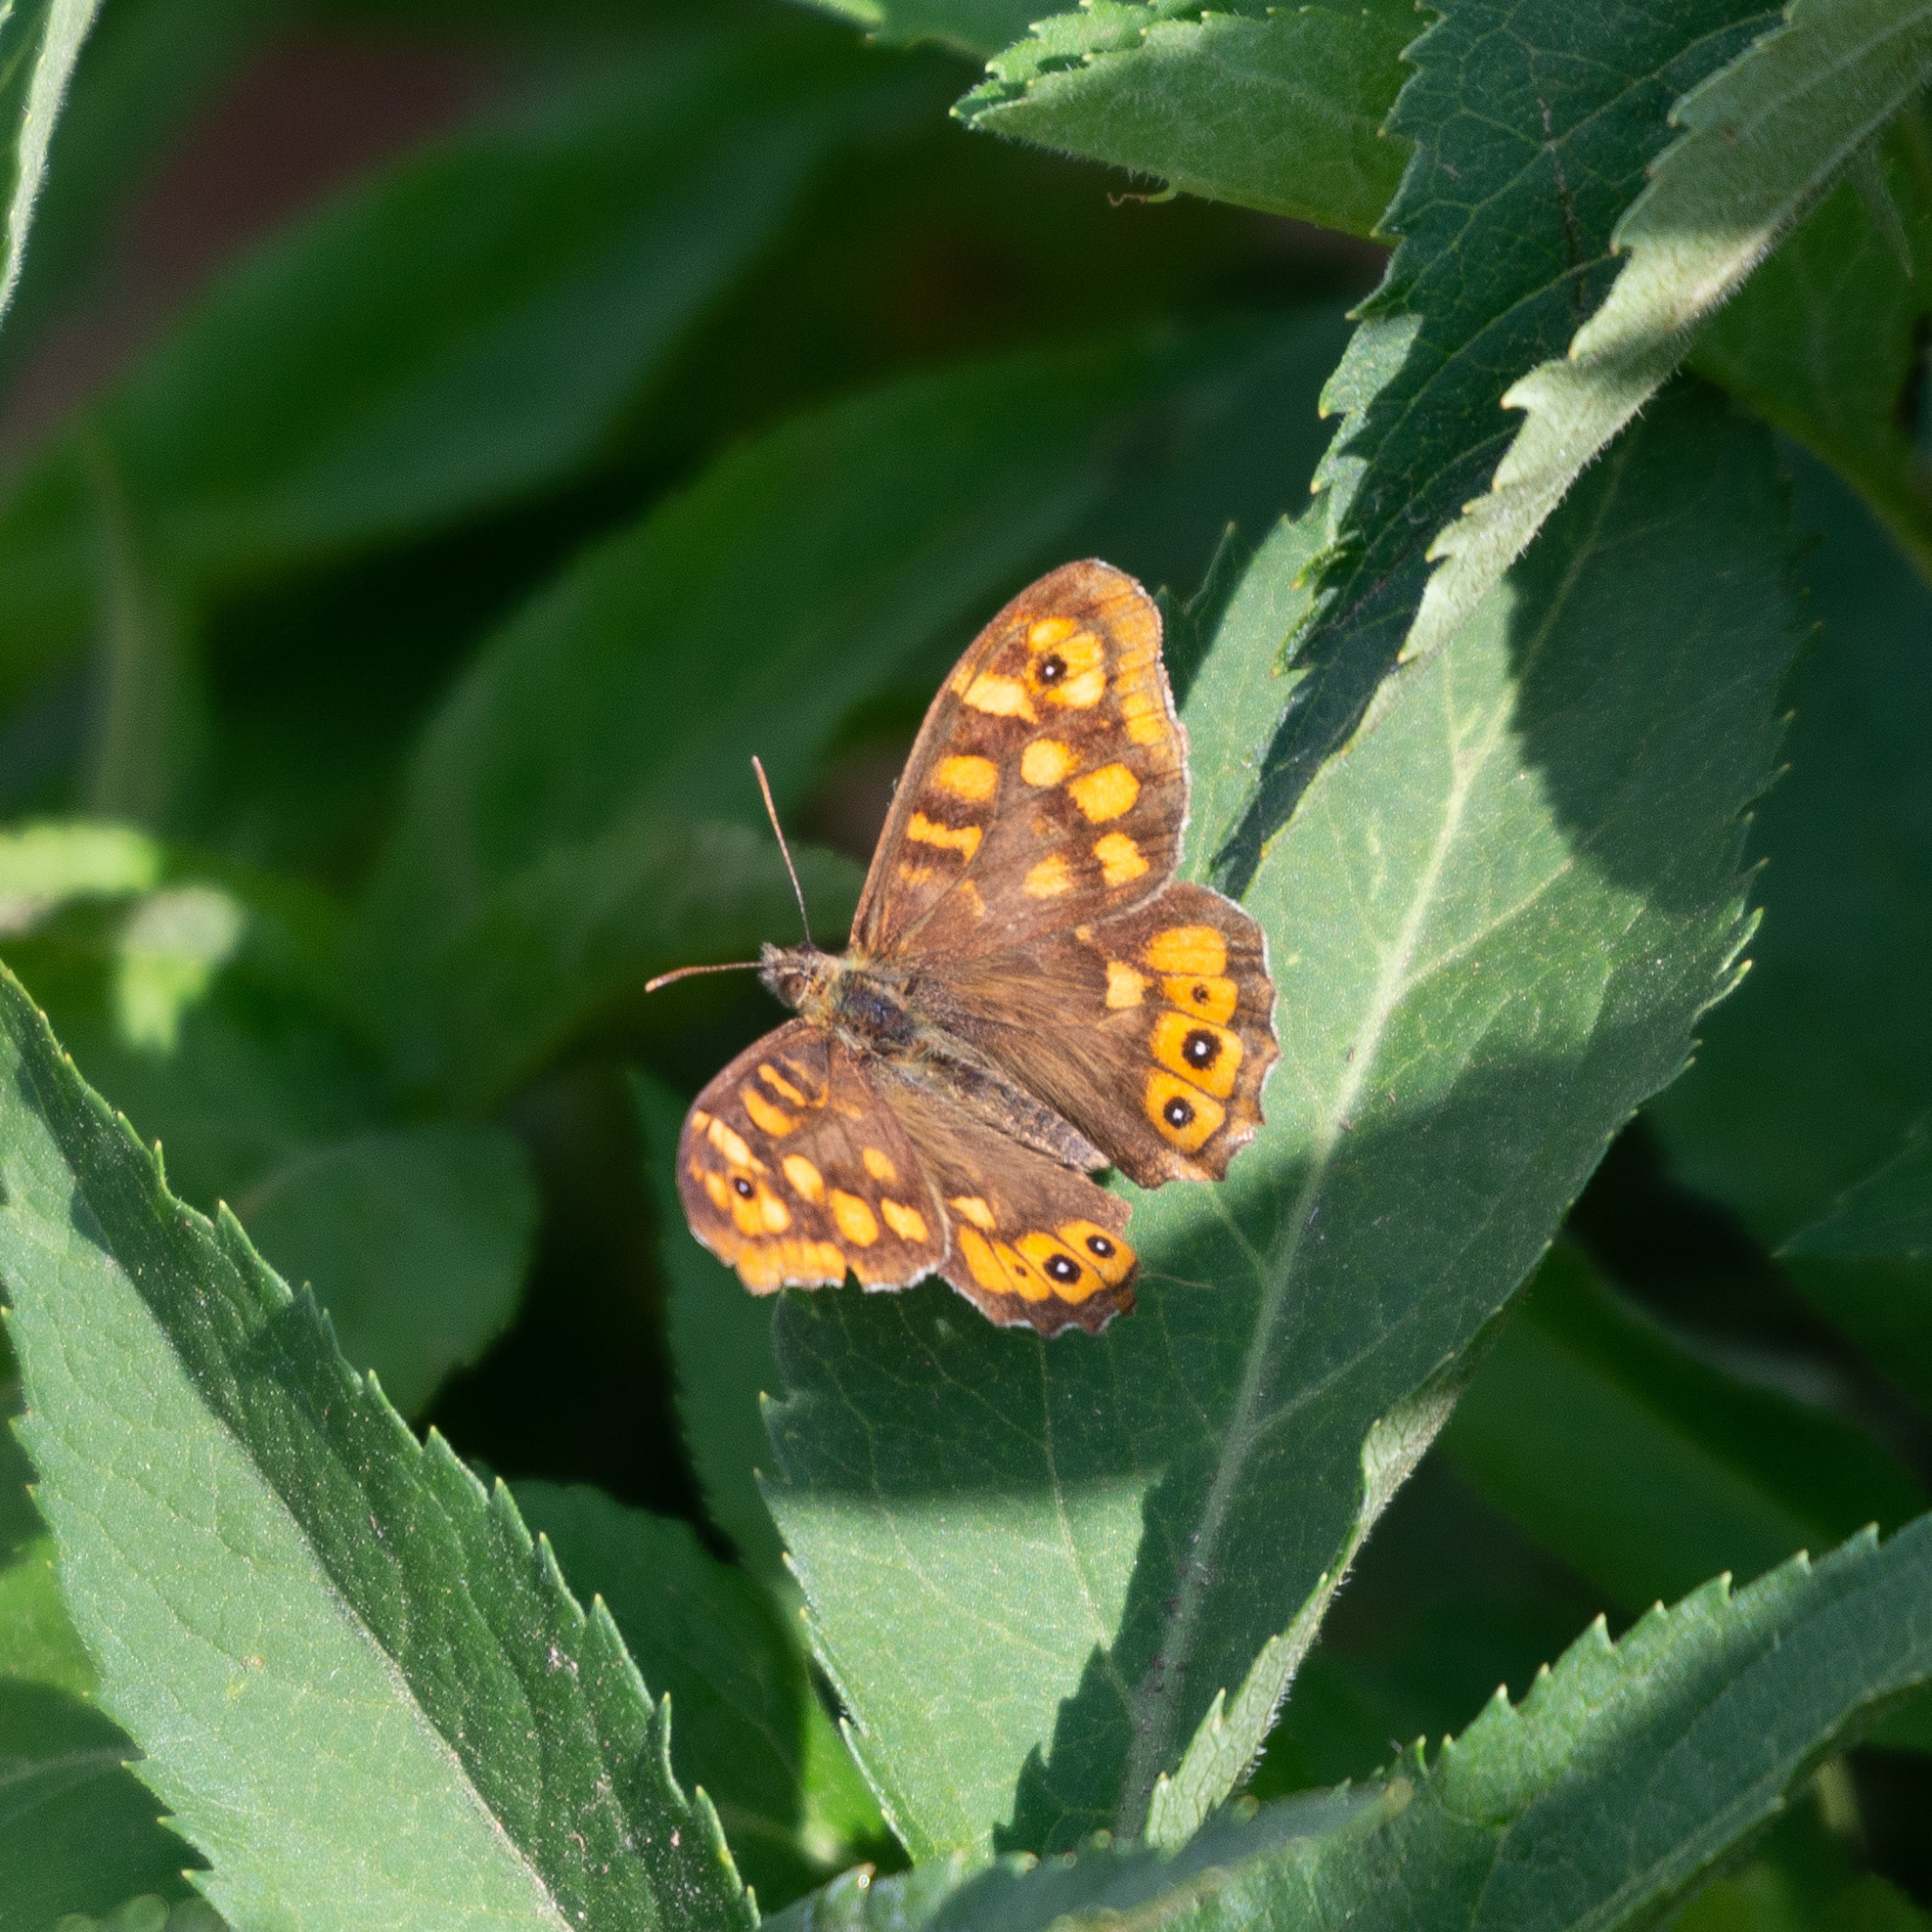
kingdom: Animalia
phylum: Arthropoda
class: Insecta
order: Lepidoptera
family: Nymphalidae
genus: Pararge
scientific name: Pararge aegeria
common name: Speckled wood
